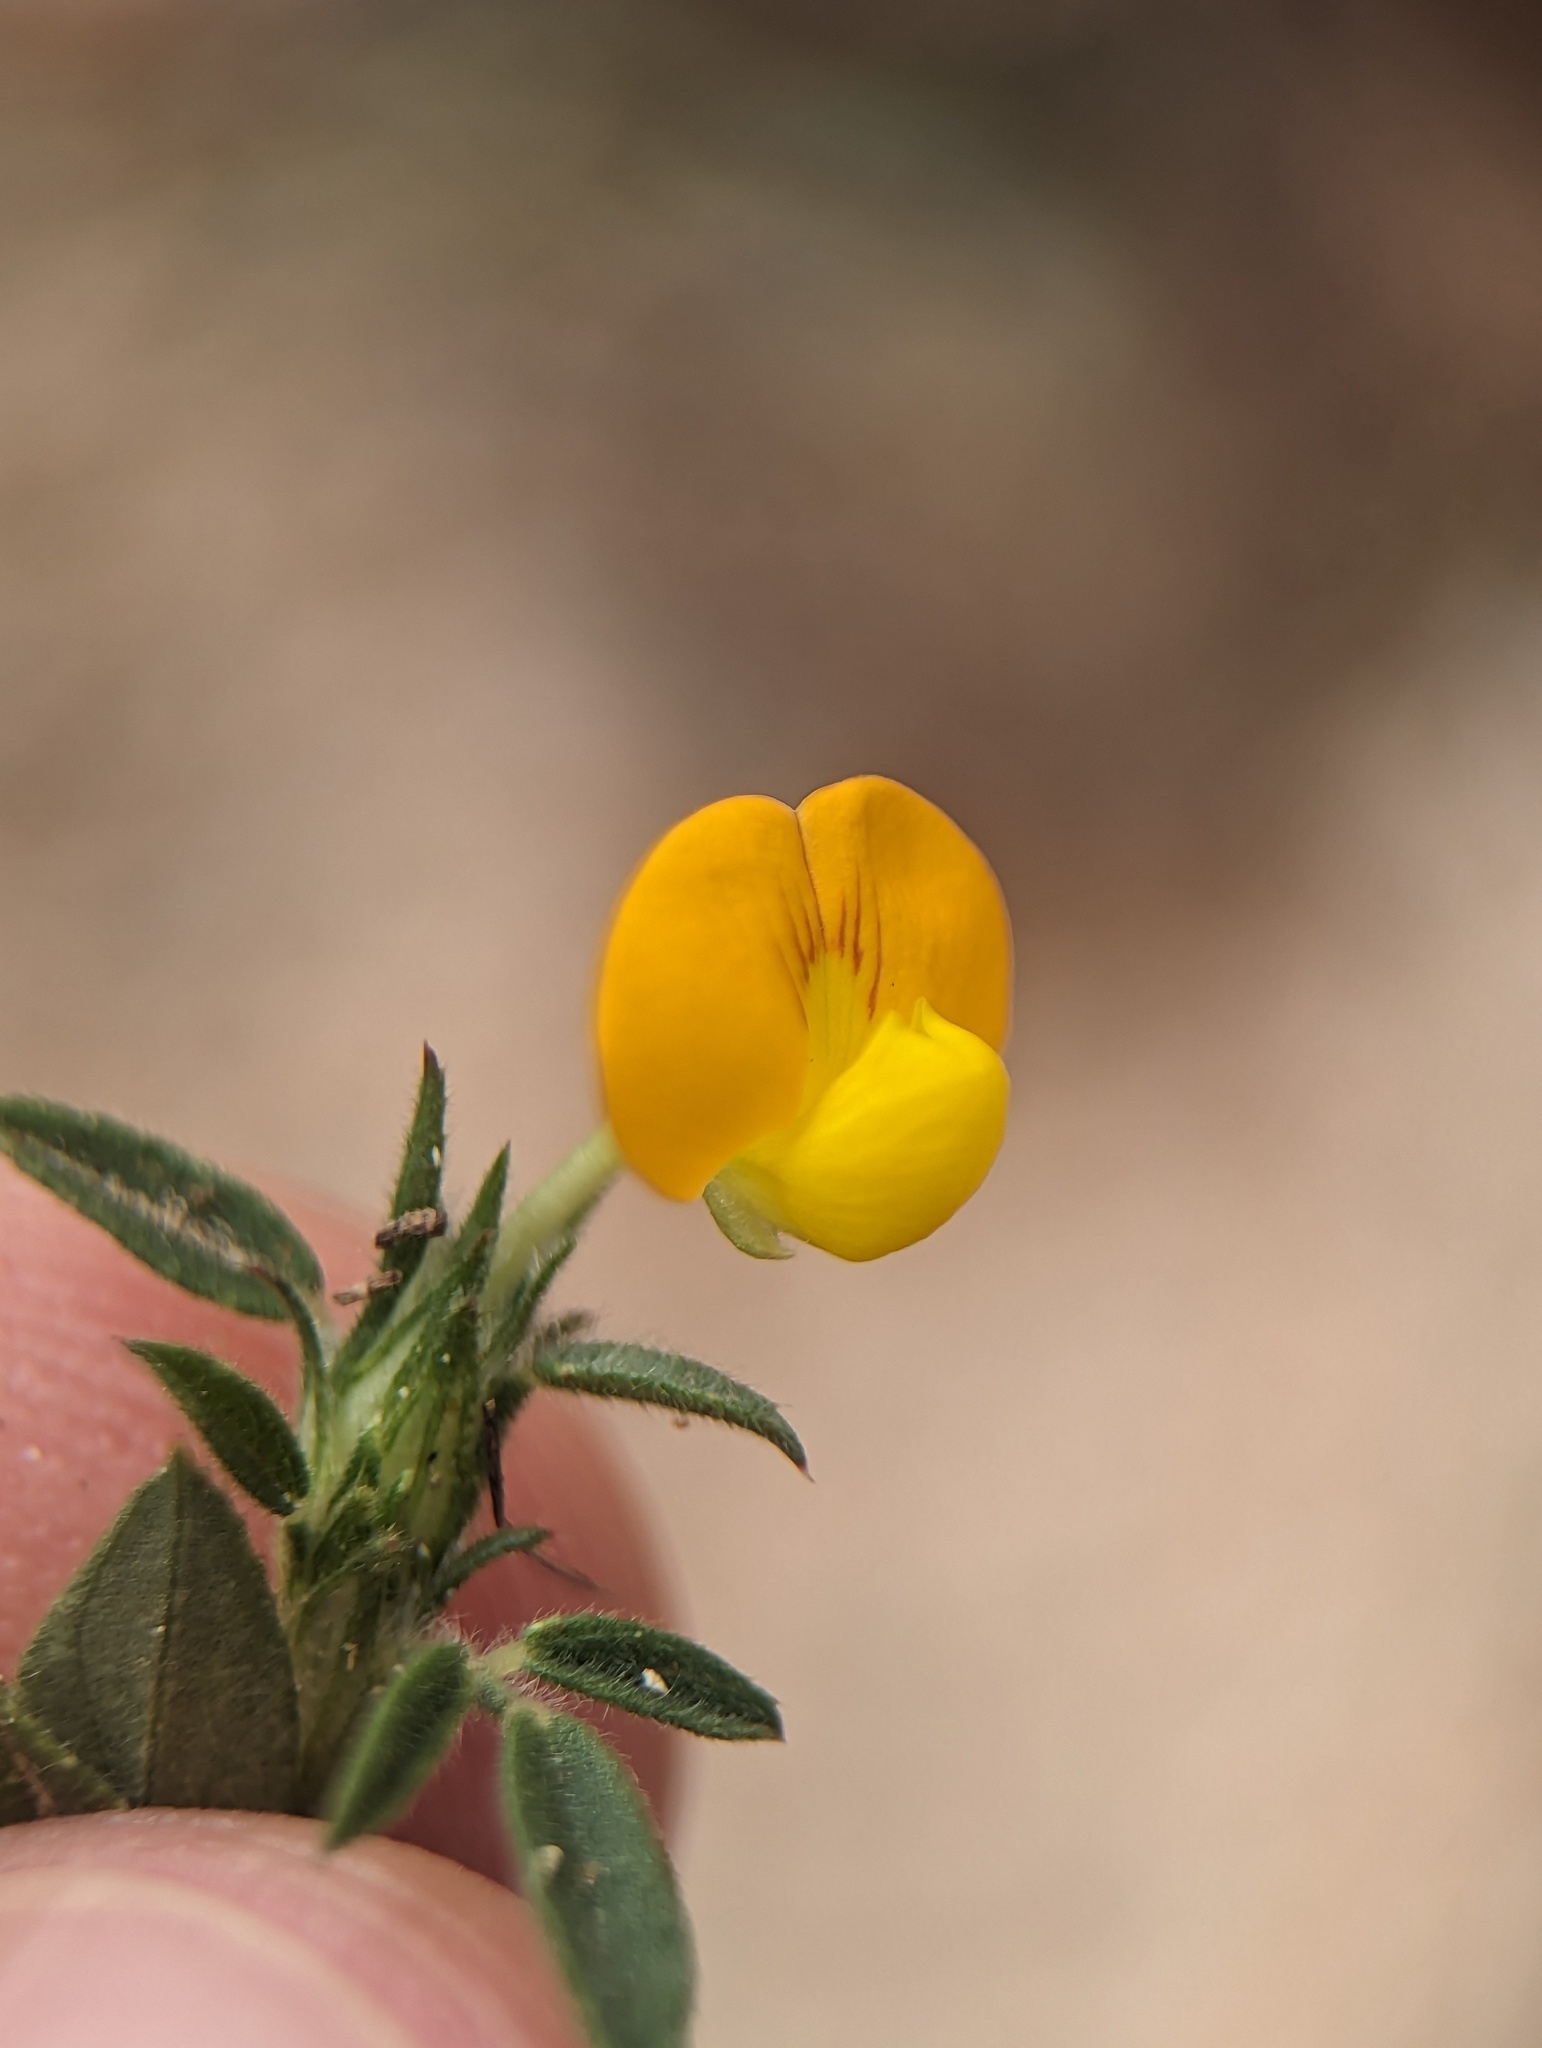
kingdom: Plantae
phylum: Tracheophyta
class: Magnoliopsida
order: Fabales
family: Fabaceae
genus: Stylosanthes
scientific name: Stylosanthes viscosa
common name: Viscid pencil-flower
